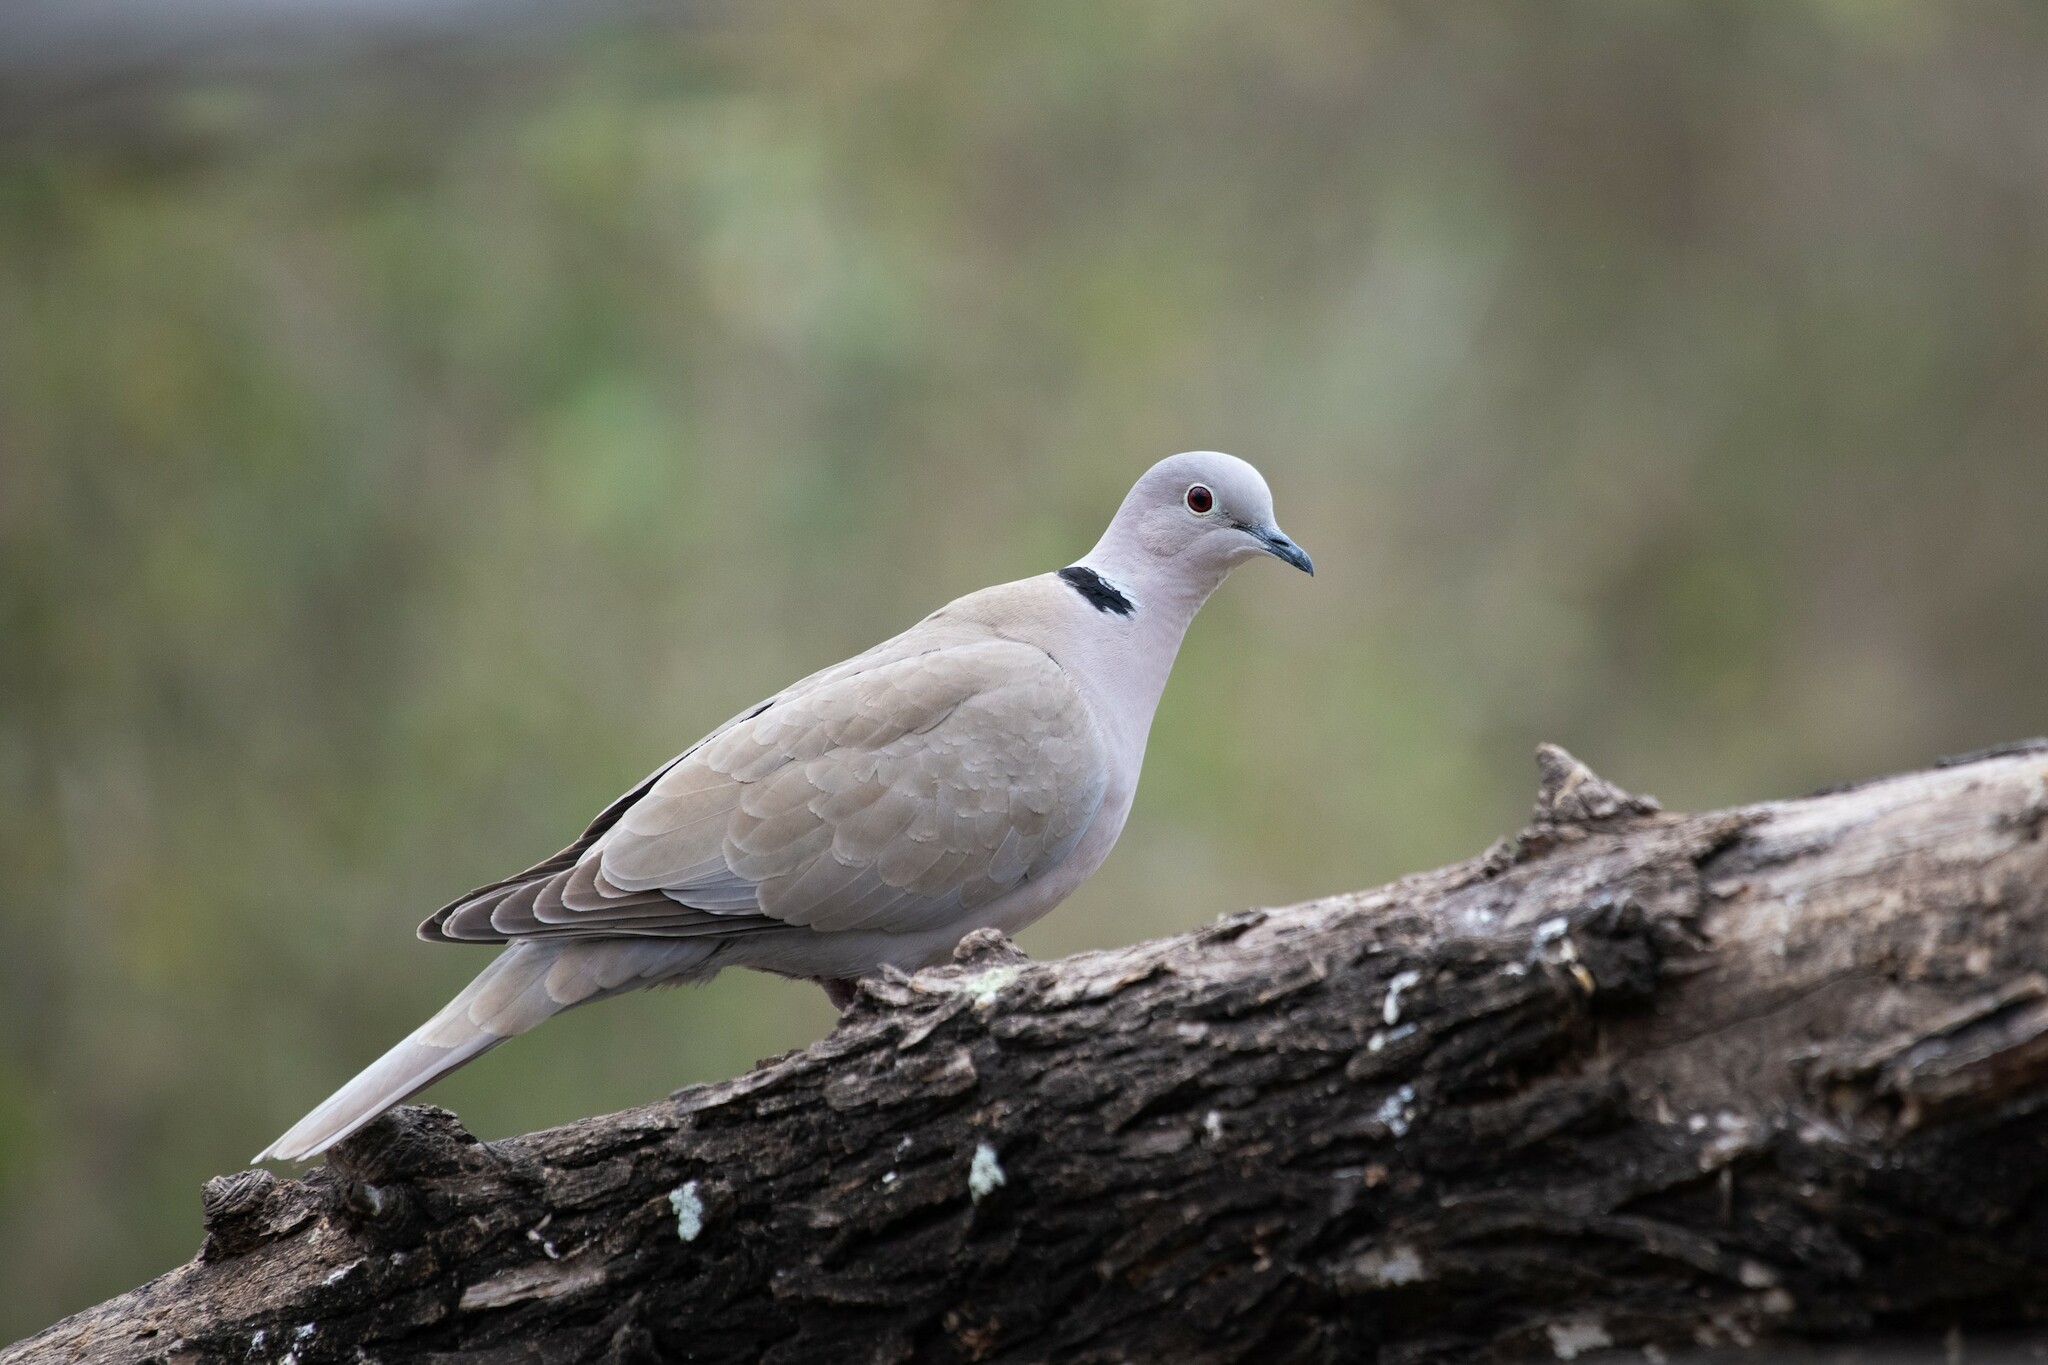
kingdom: Animalia
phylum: Chordata
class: Aves
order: Columbiformes
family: Columbidae
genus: Streptopelia
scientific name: Streptopelia decaocto
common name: Eurasian collared dove
